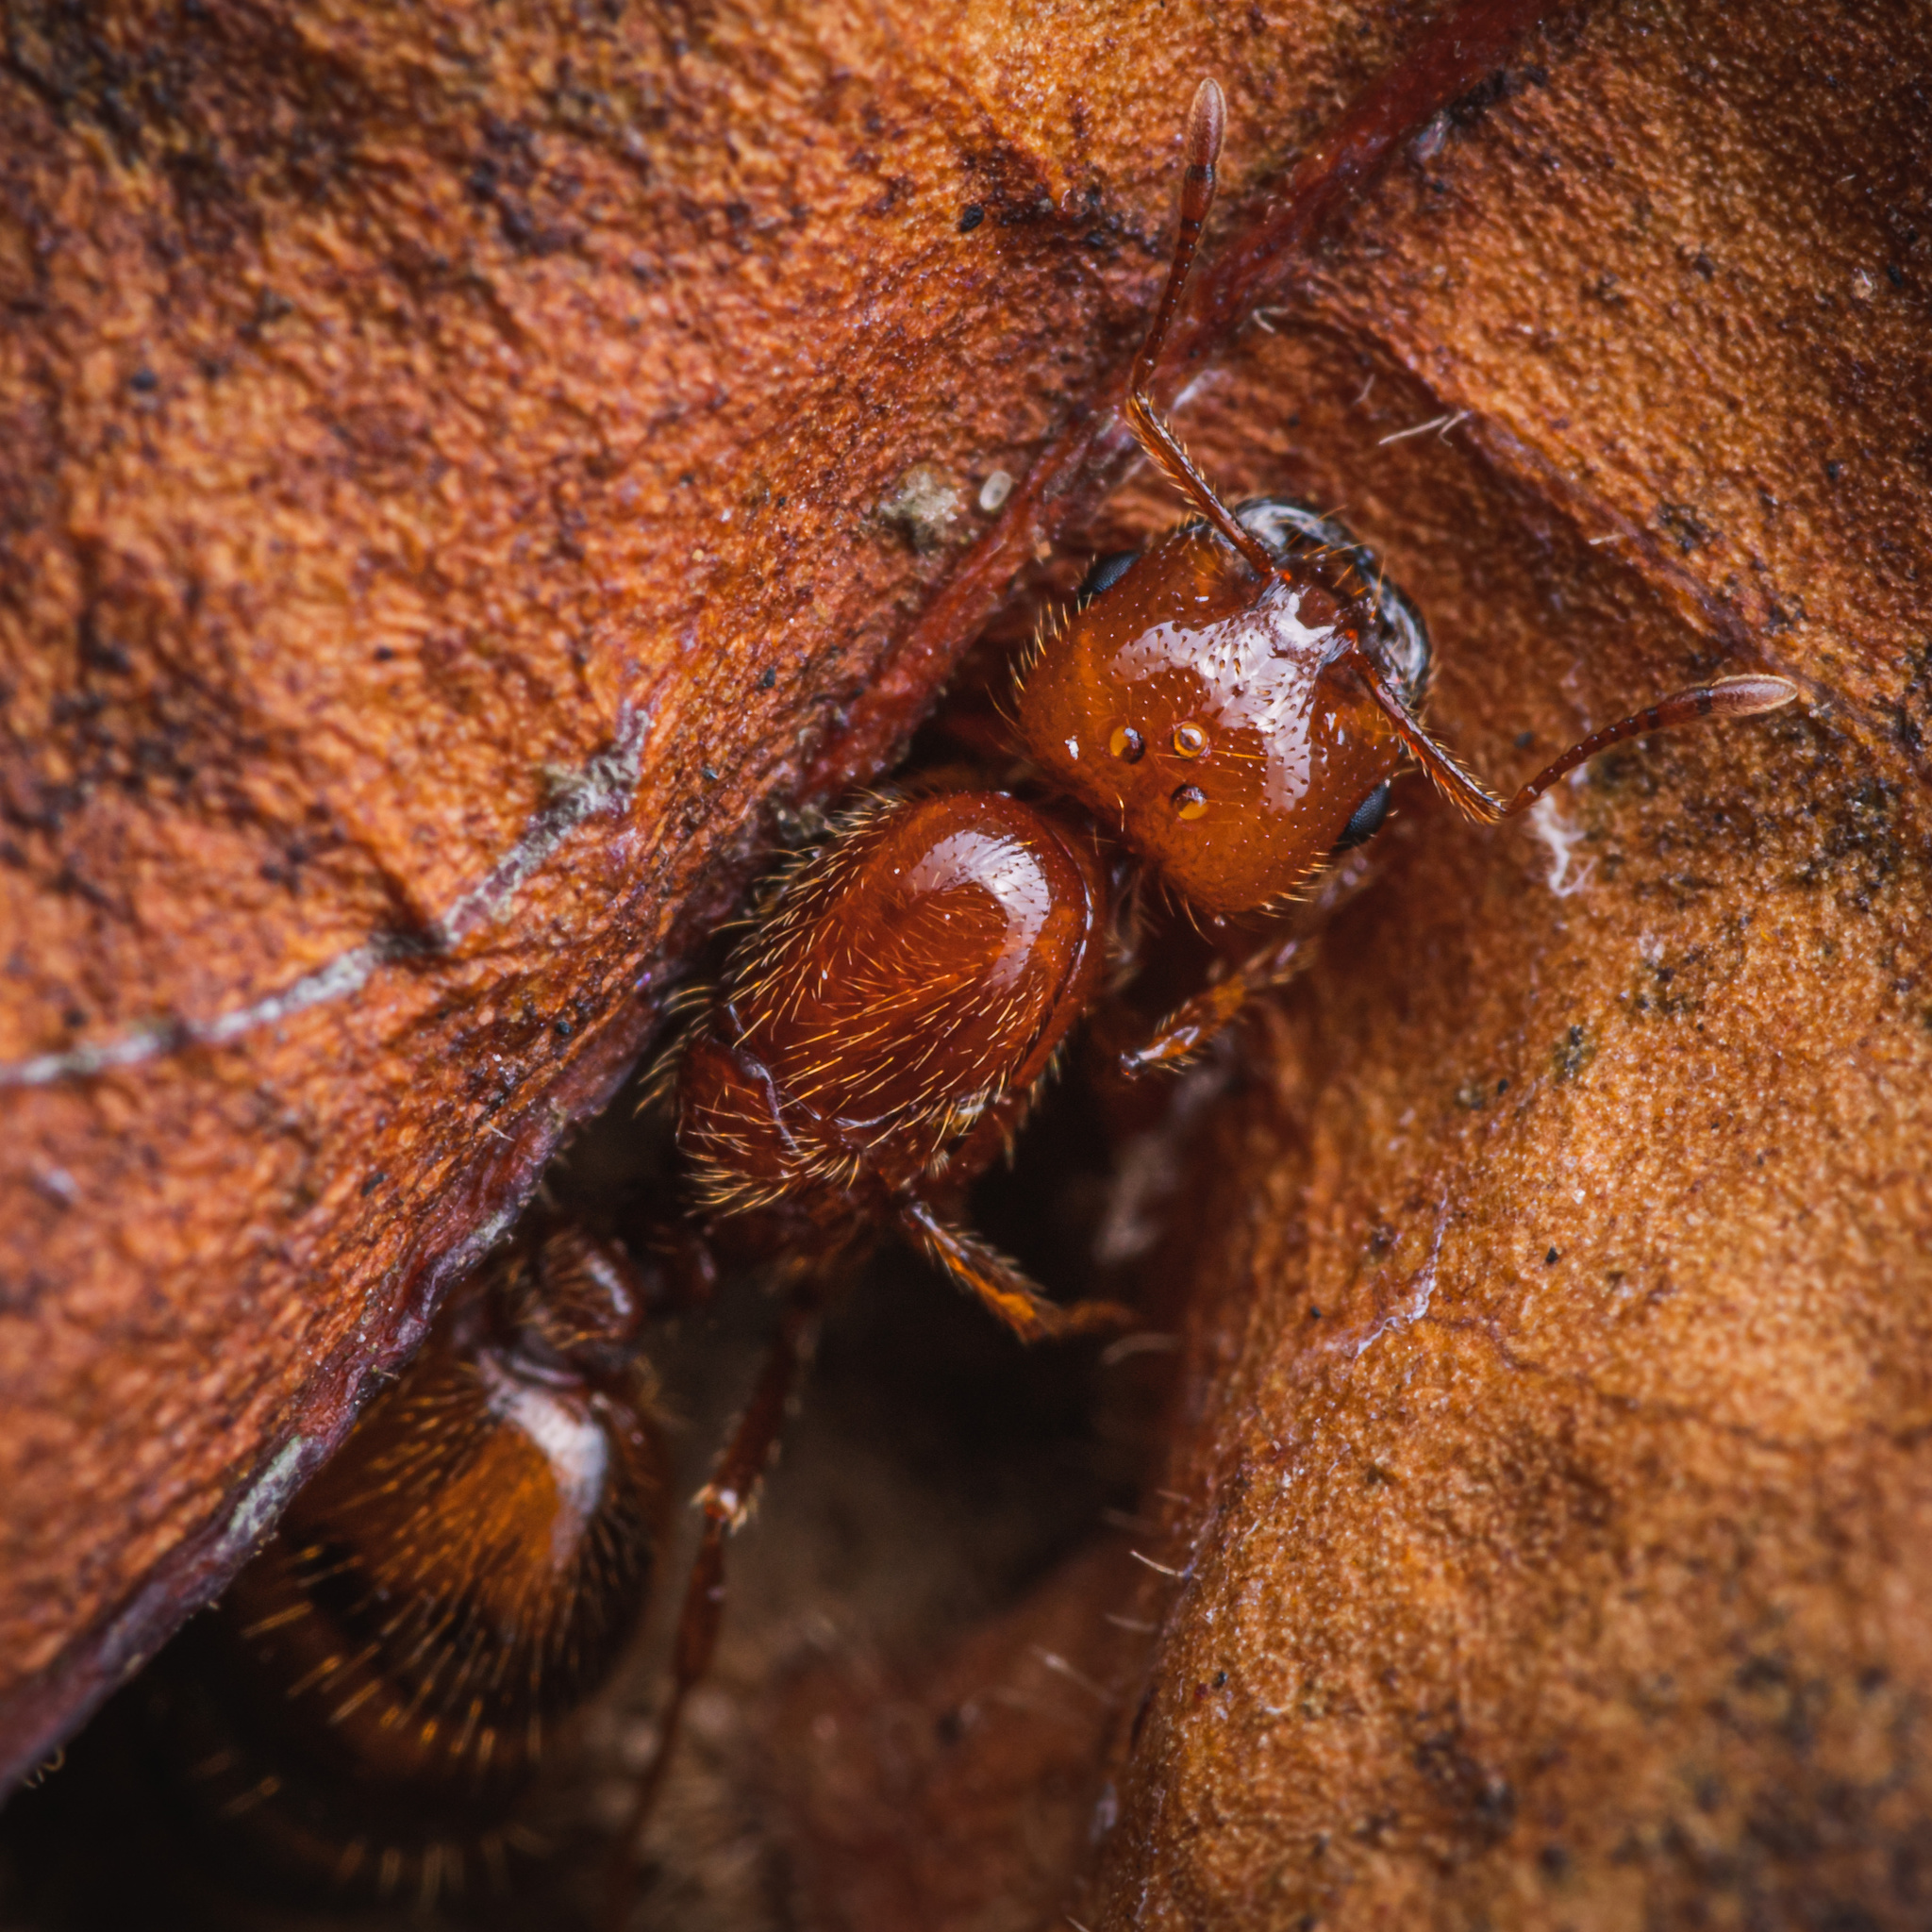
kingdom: Animalia
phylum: Arthropoda
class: Insecta
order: Hymenoptera
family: Formicidae
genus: Solenopsis
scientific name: Solenopsis geminata
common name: Tropical fire ant
